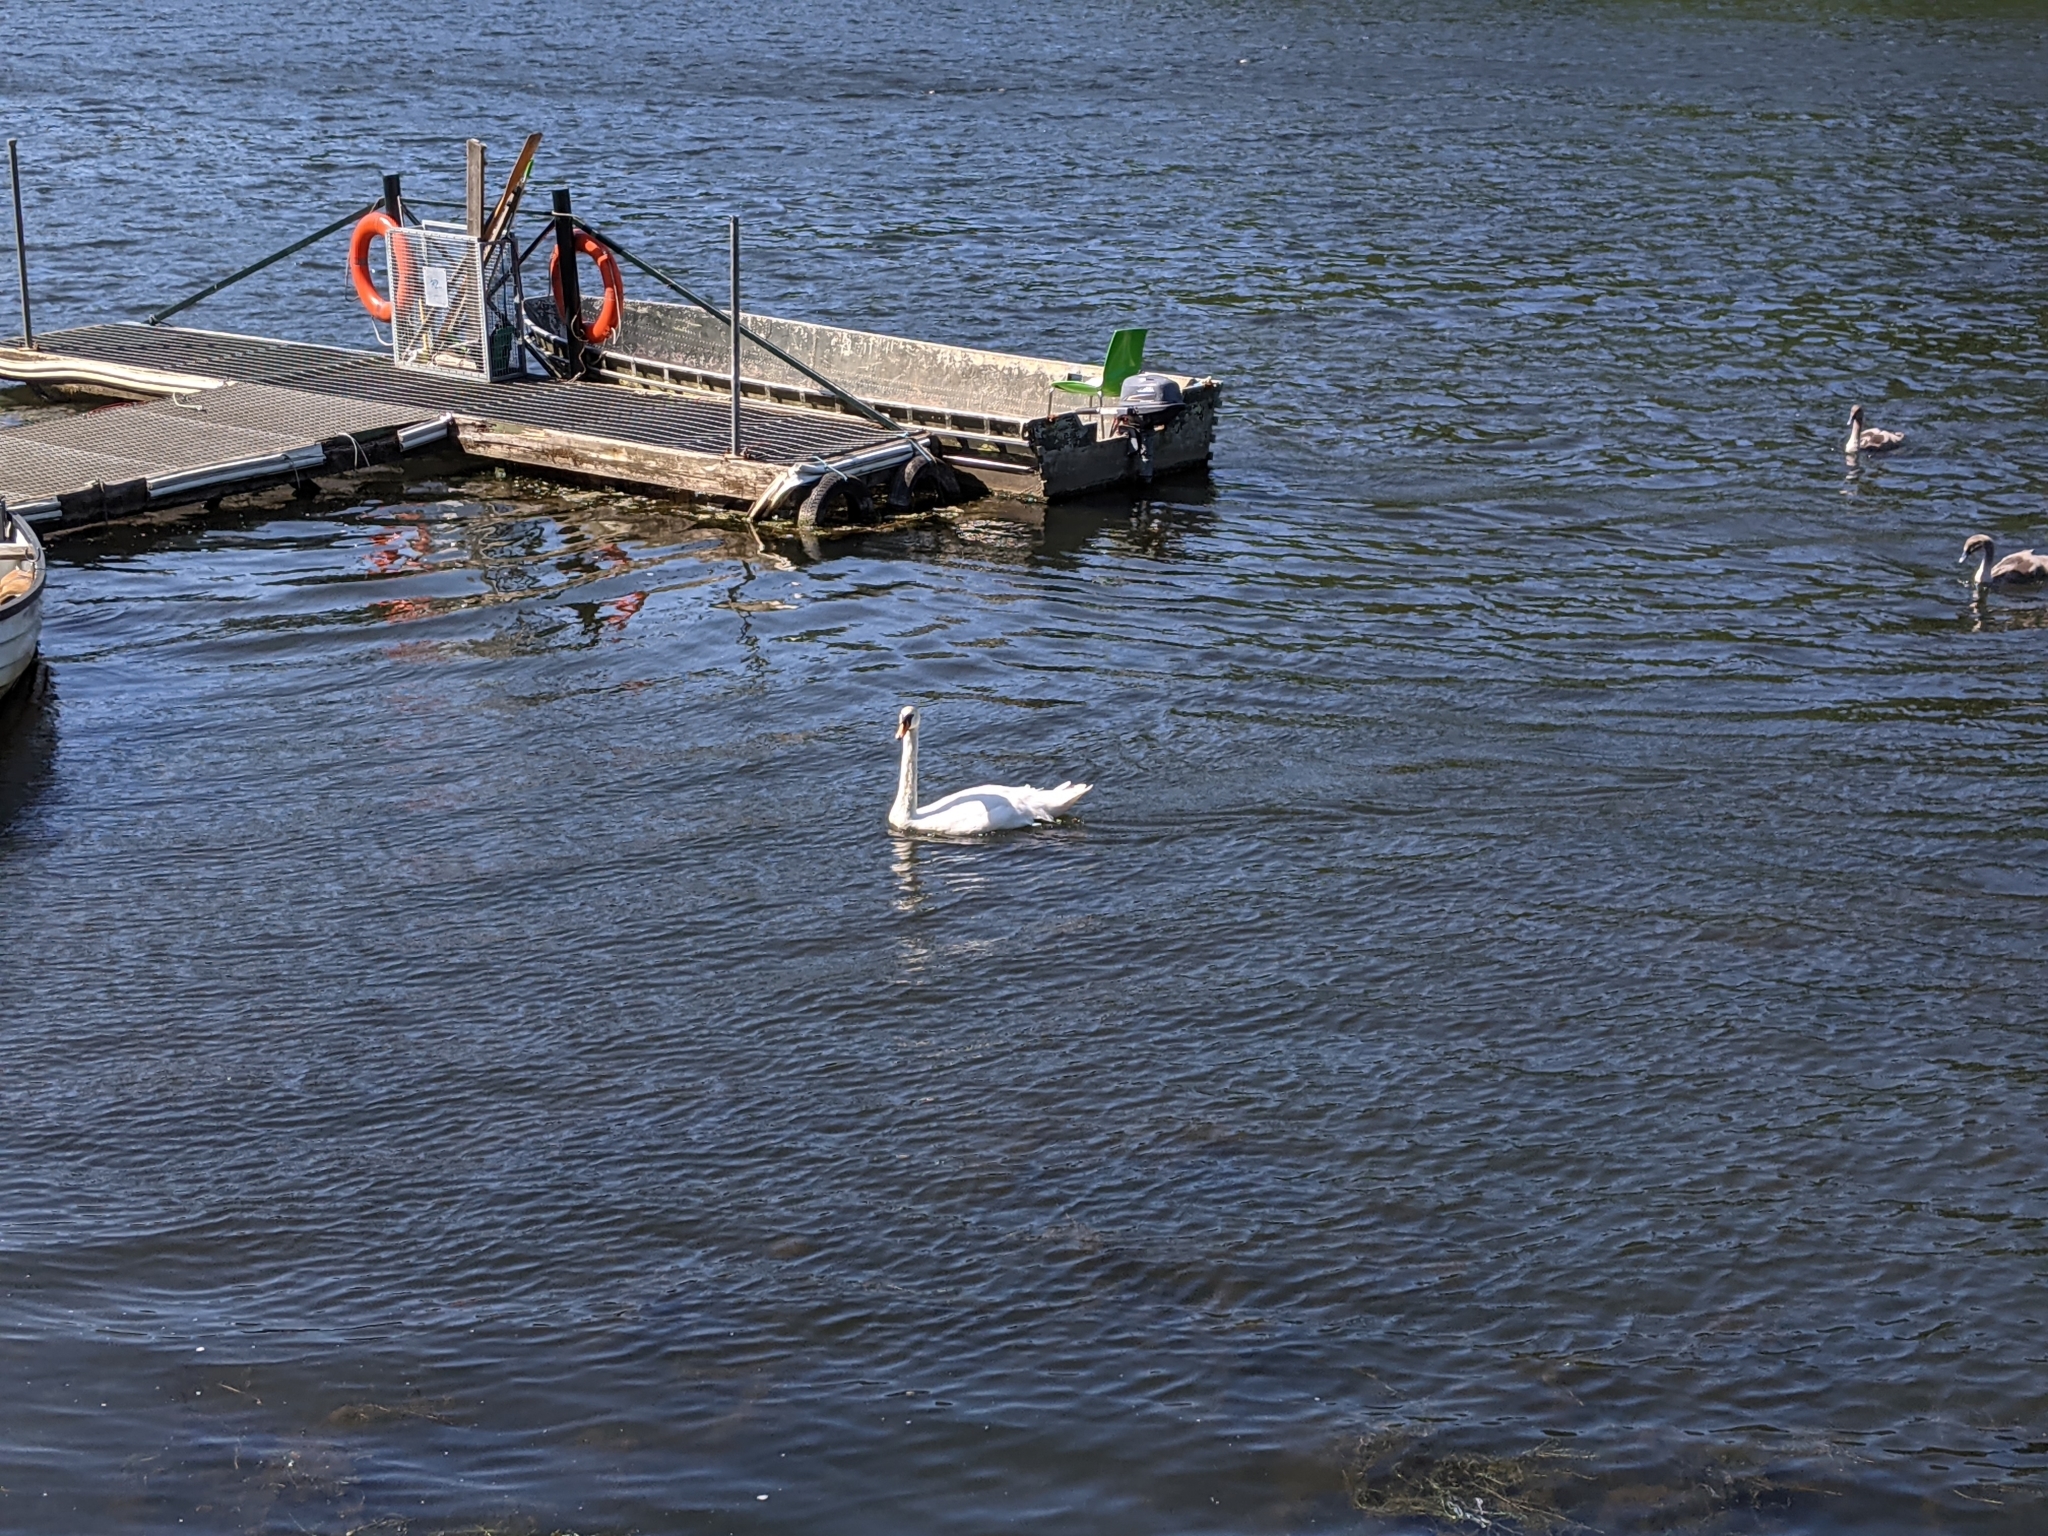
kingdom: Animalia
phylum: Chordata
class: Aves
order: Anseriformes
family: Anatidae
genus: Cygnus
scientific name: Cygnus olor
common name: Mute swan
